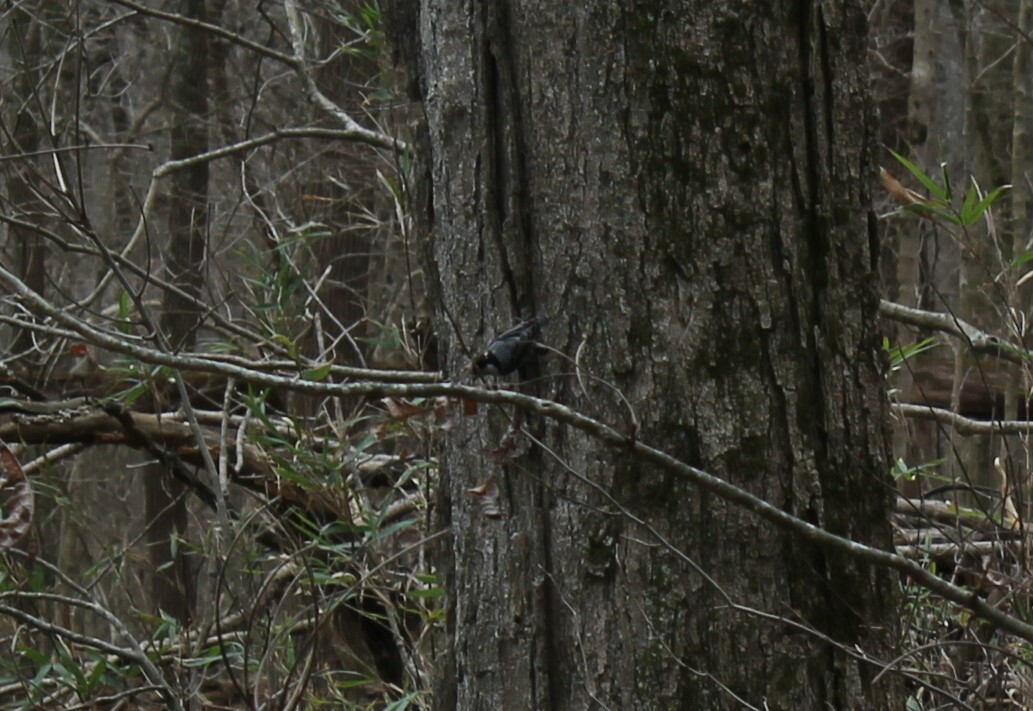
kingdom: Animalia
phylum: Chordata
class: Aves
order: Passeriformes
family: Sittidae
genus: Sitta
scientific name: Sitta carolinensis
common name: White-breasted nuthatch
